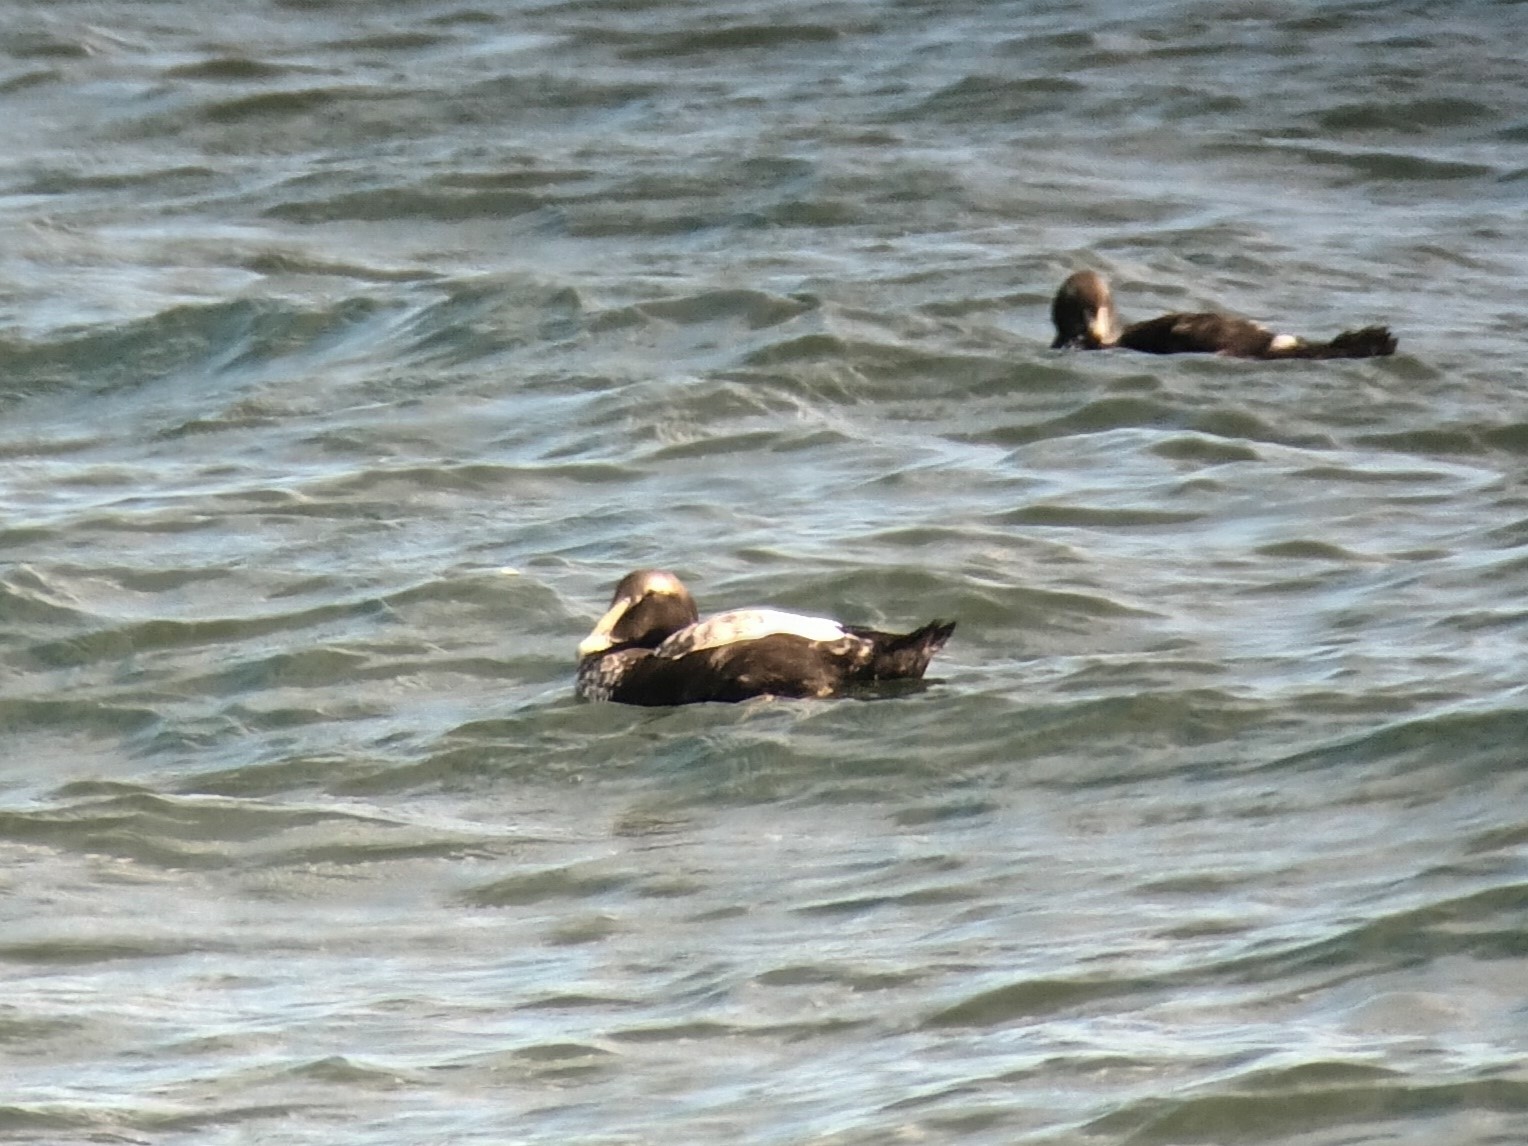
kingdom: Animalia
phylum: Chordata
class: Aves
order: Anseriformes
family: Anatidae
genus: Somateria
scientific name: Somateria mollissima
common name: Common eider
